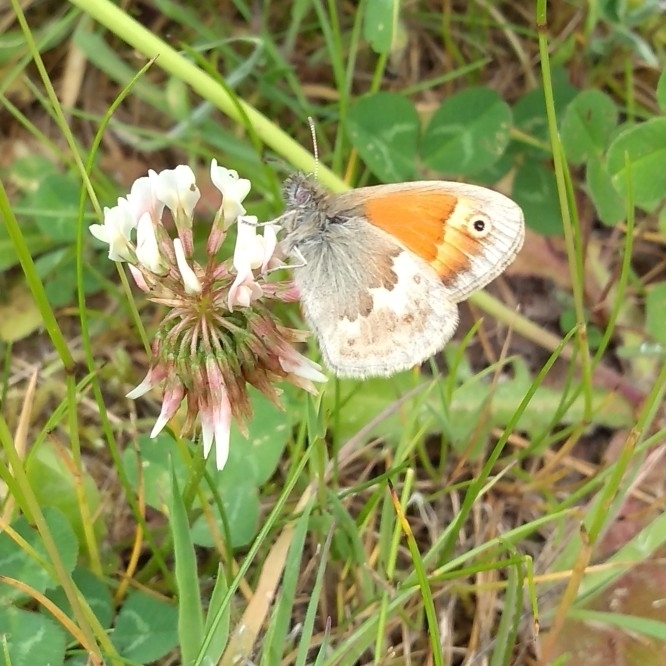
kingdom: Animalia
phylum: Arthropoda
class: Insecta
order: Lepidoptera
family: Nymphalidae
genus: Coenonympha
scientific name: Coenonympha pamphilus
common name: Small heath
